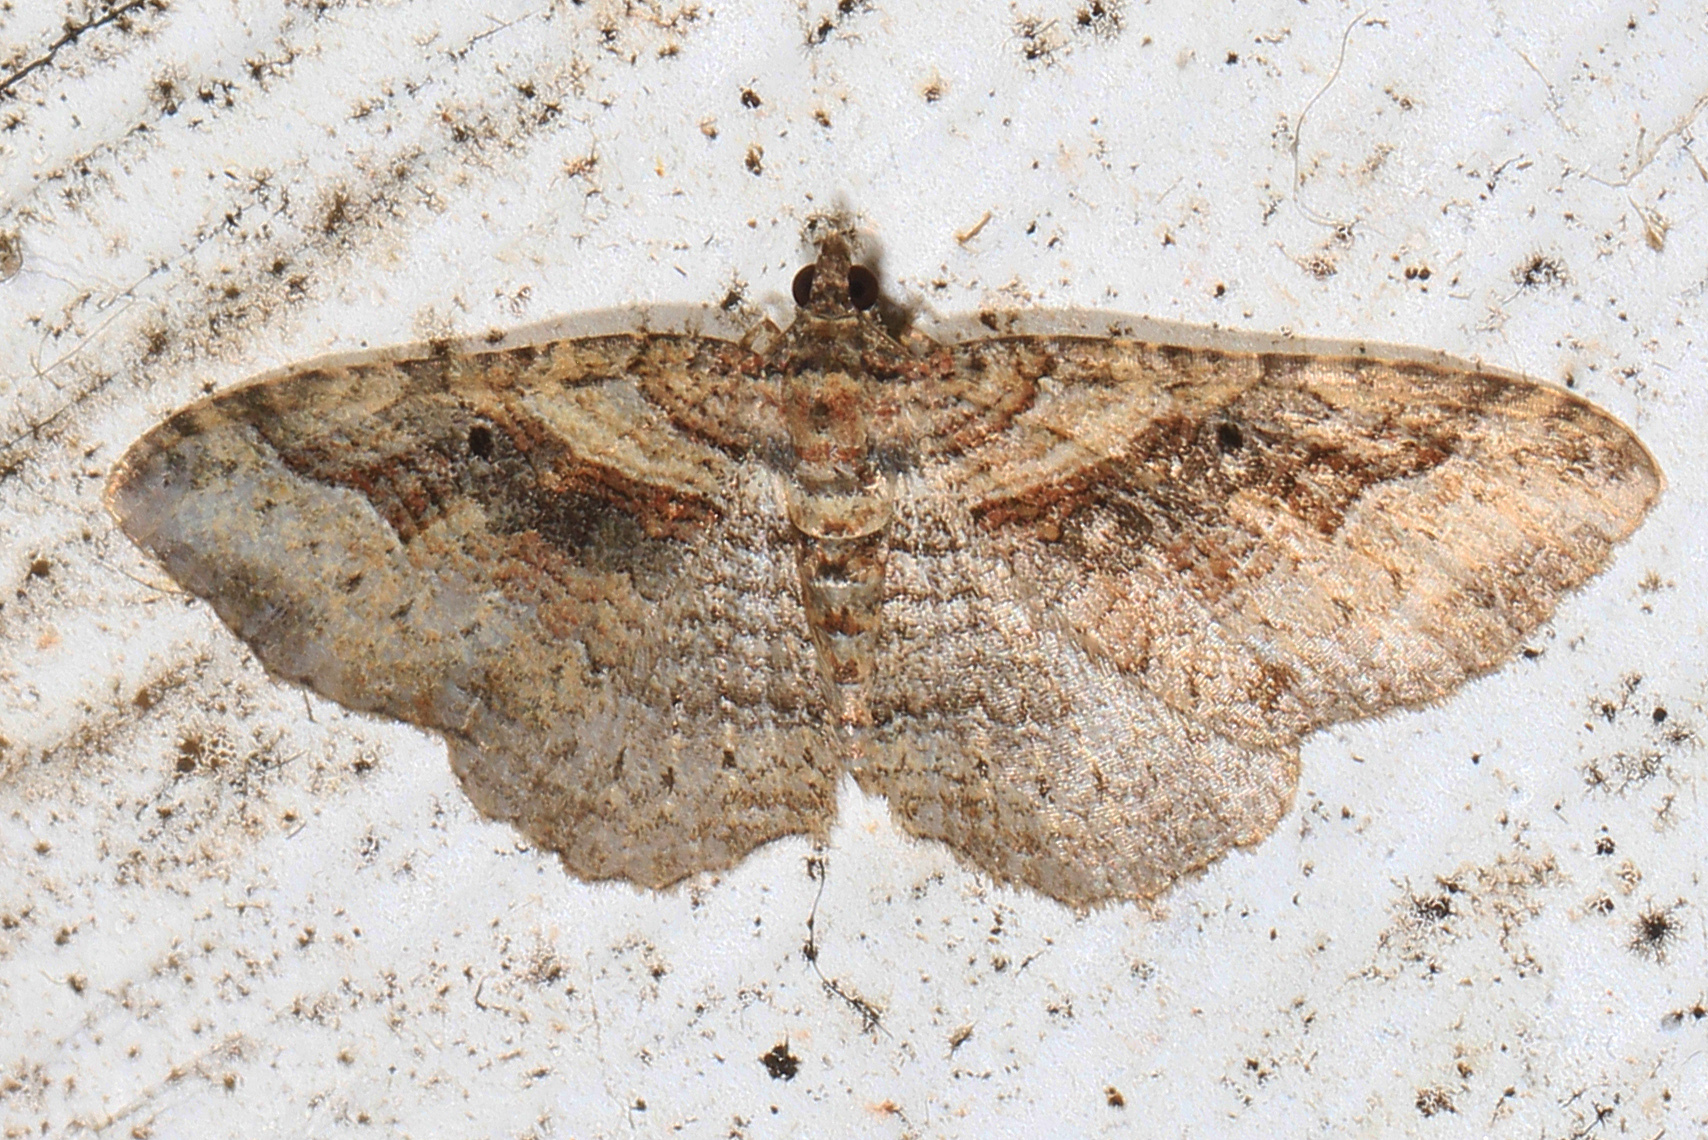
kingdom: Animalia
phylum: Arthropoda
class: Insecta
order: Lepidoptera
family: Geometridae
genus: Costaconvexa
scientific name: Costaconvexa centrostrigaria
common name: Bent-line carpet
